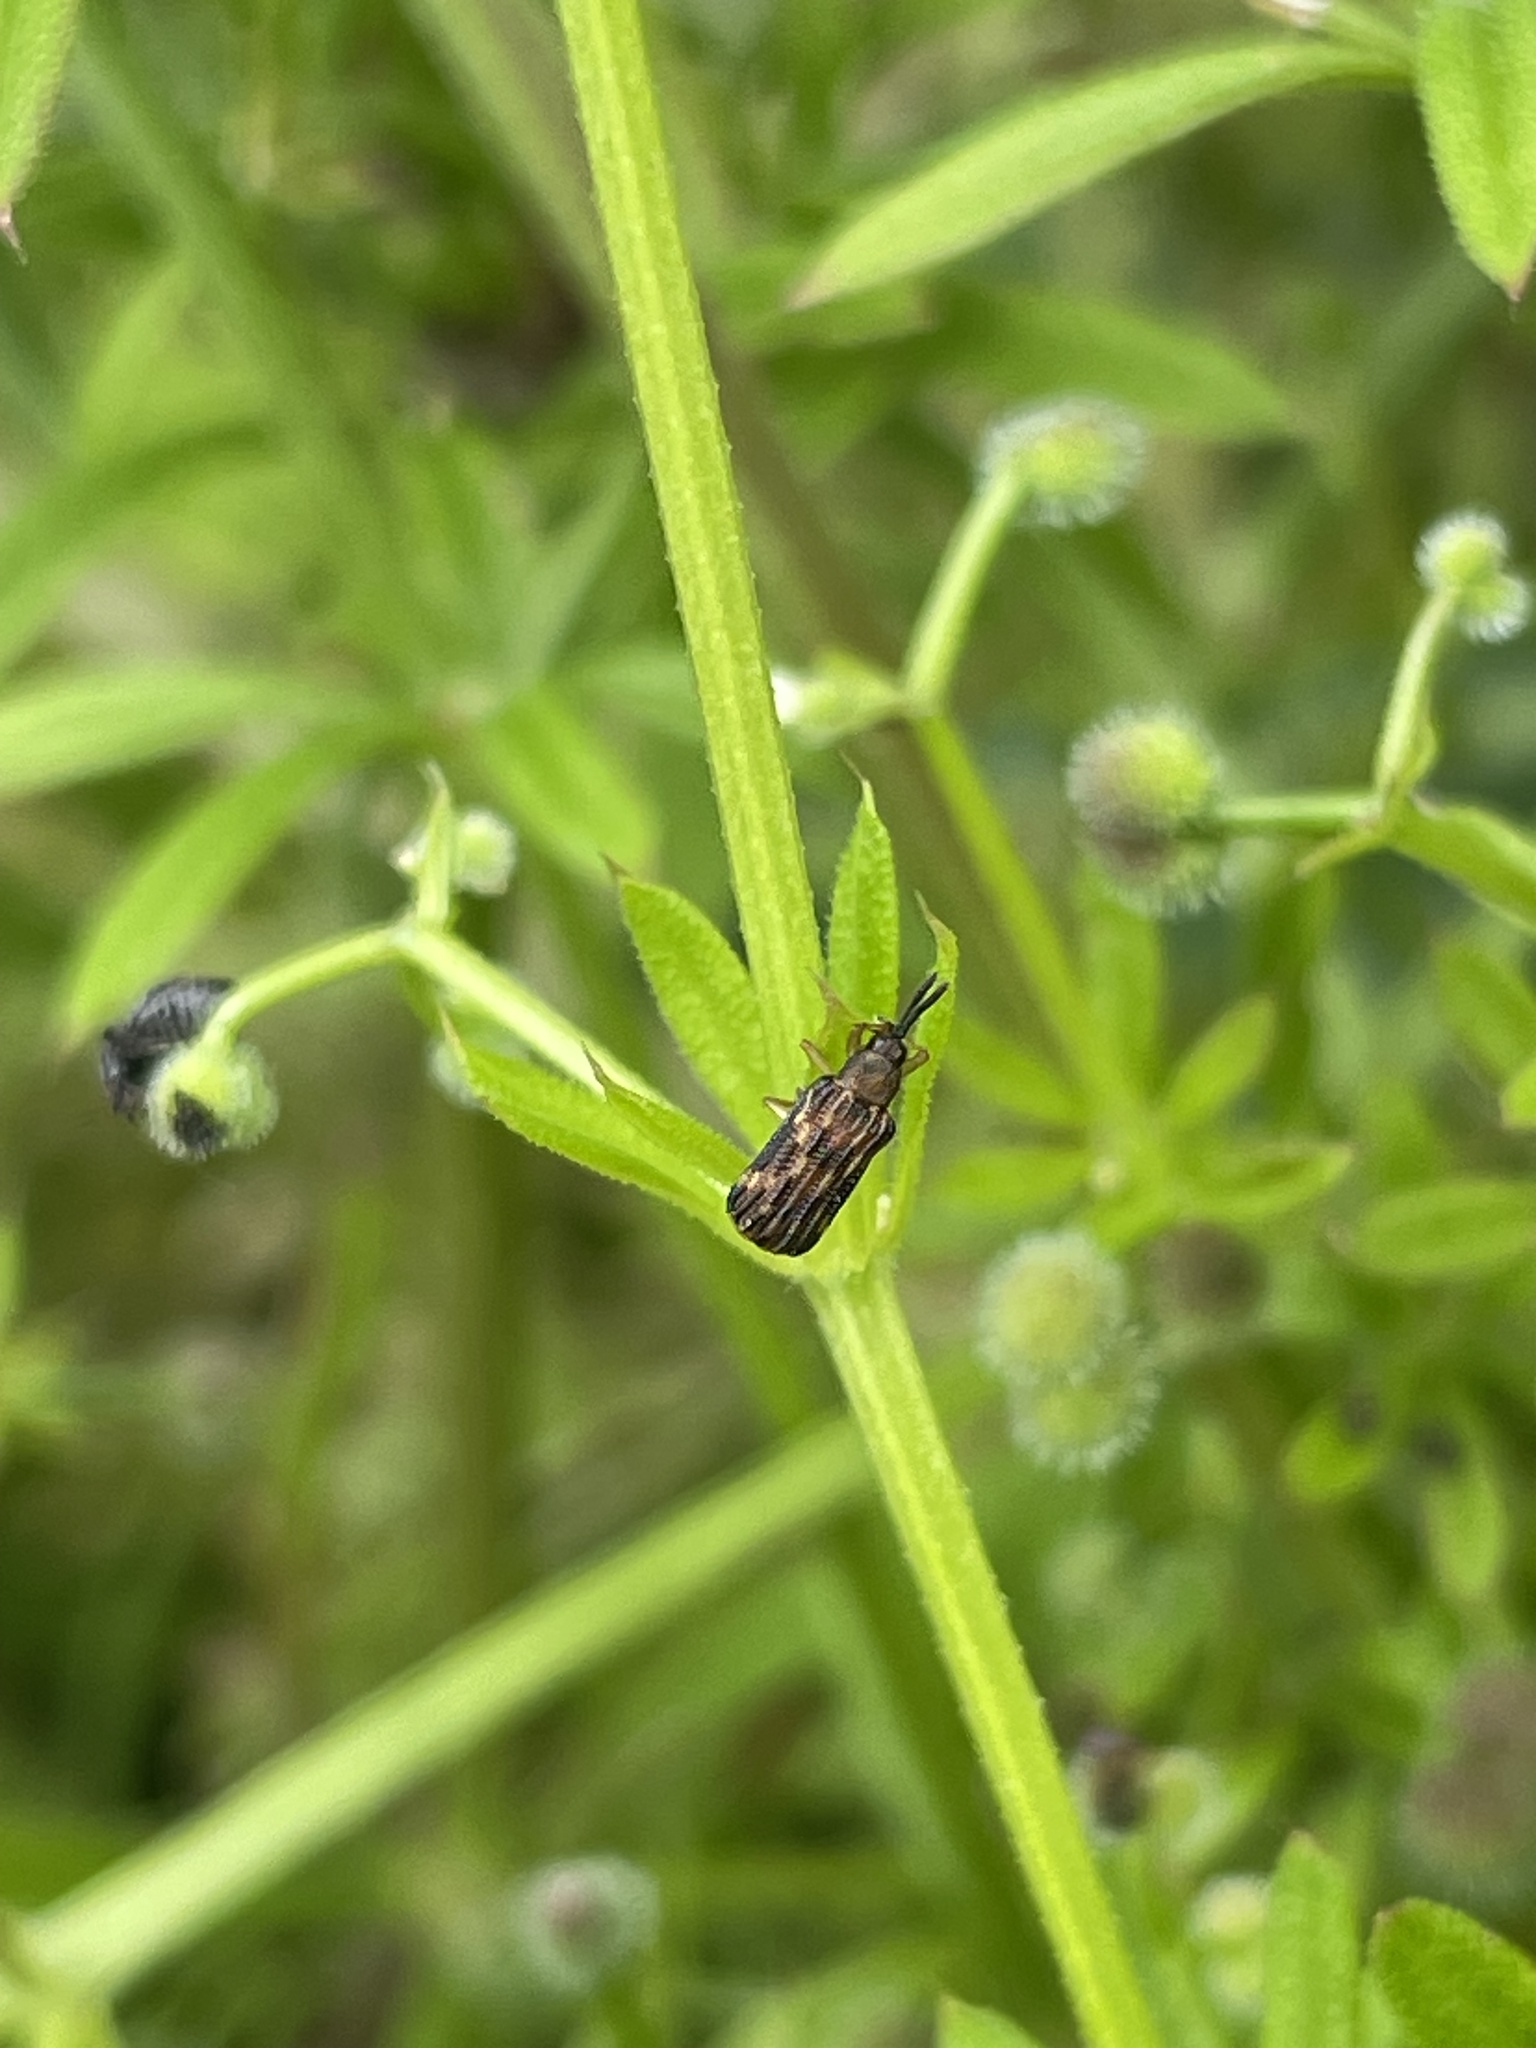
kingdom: Animalia
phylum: Arthropoda
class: Insecta
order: Coleoptera
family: Chrysomelidae
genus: Sumitrosis
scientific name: Sumitrosis inaequalis
